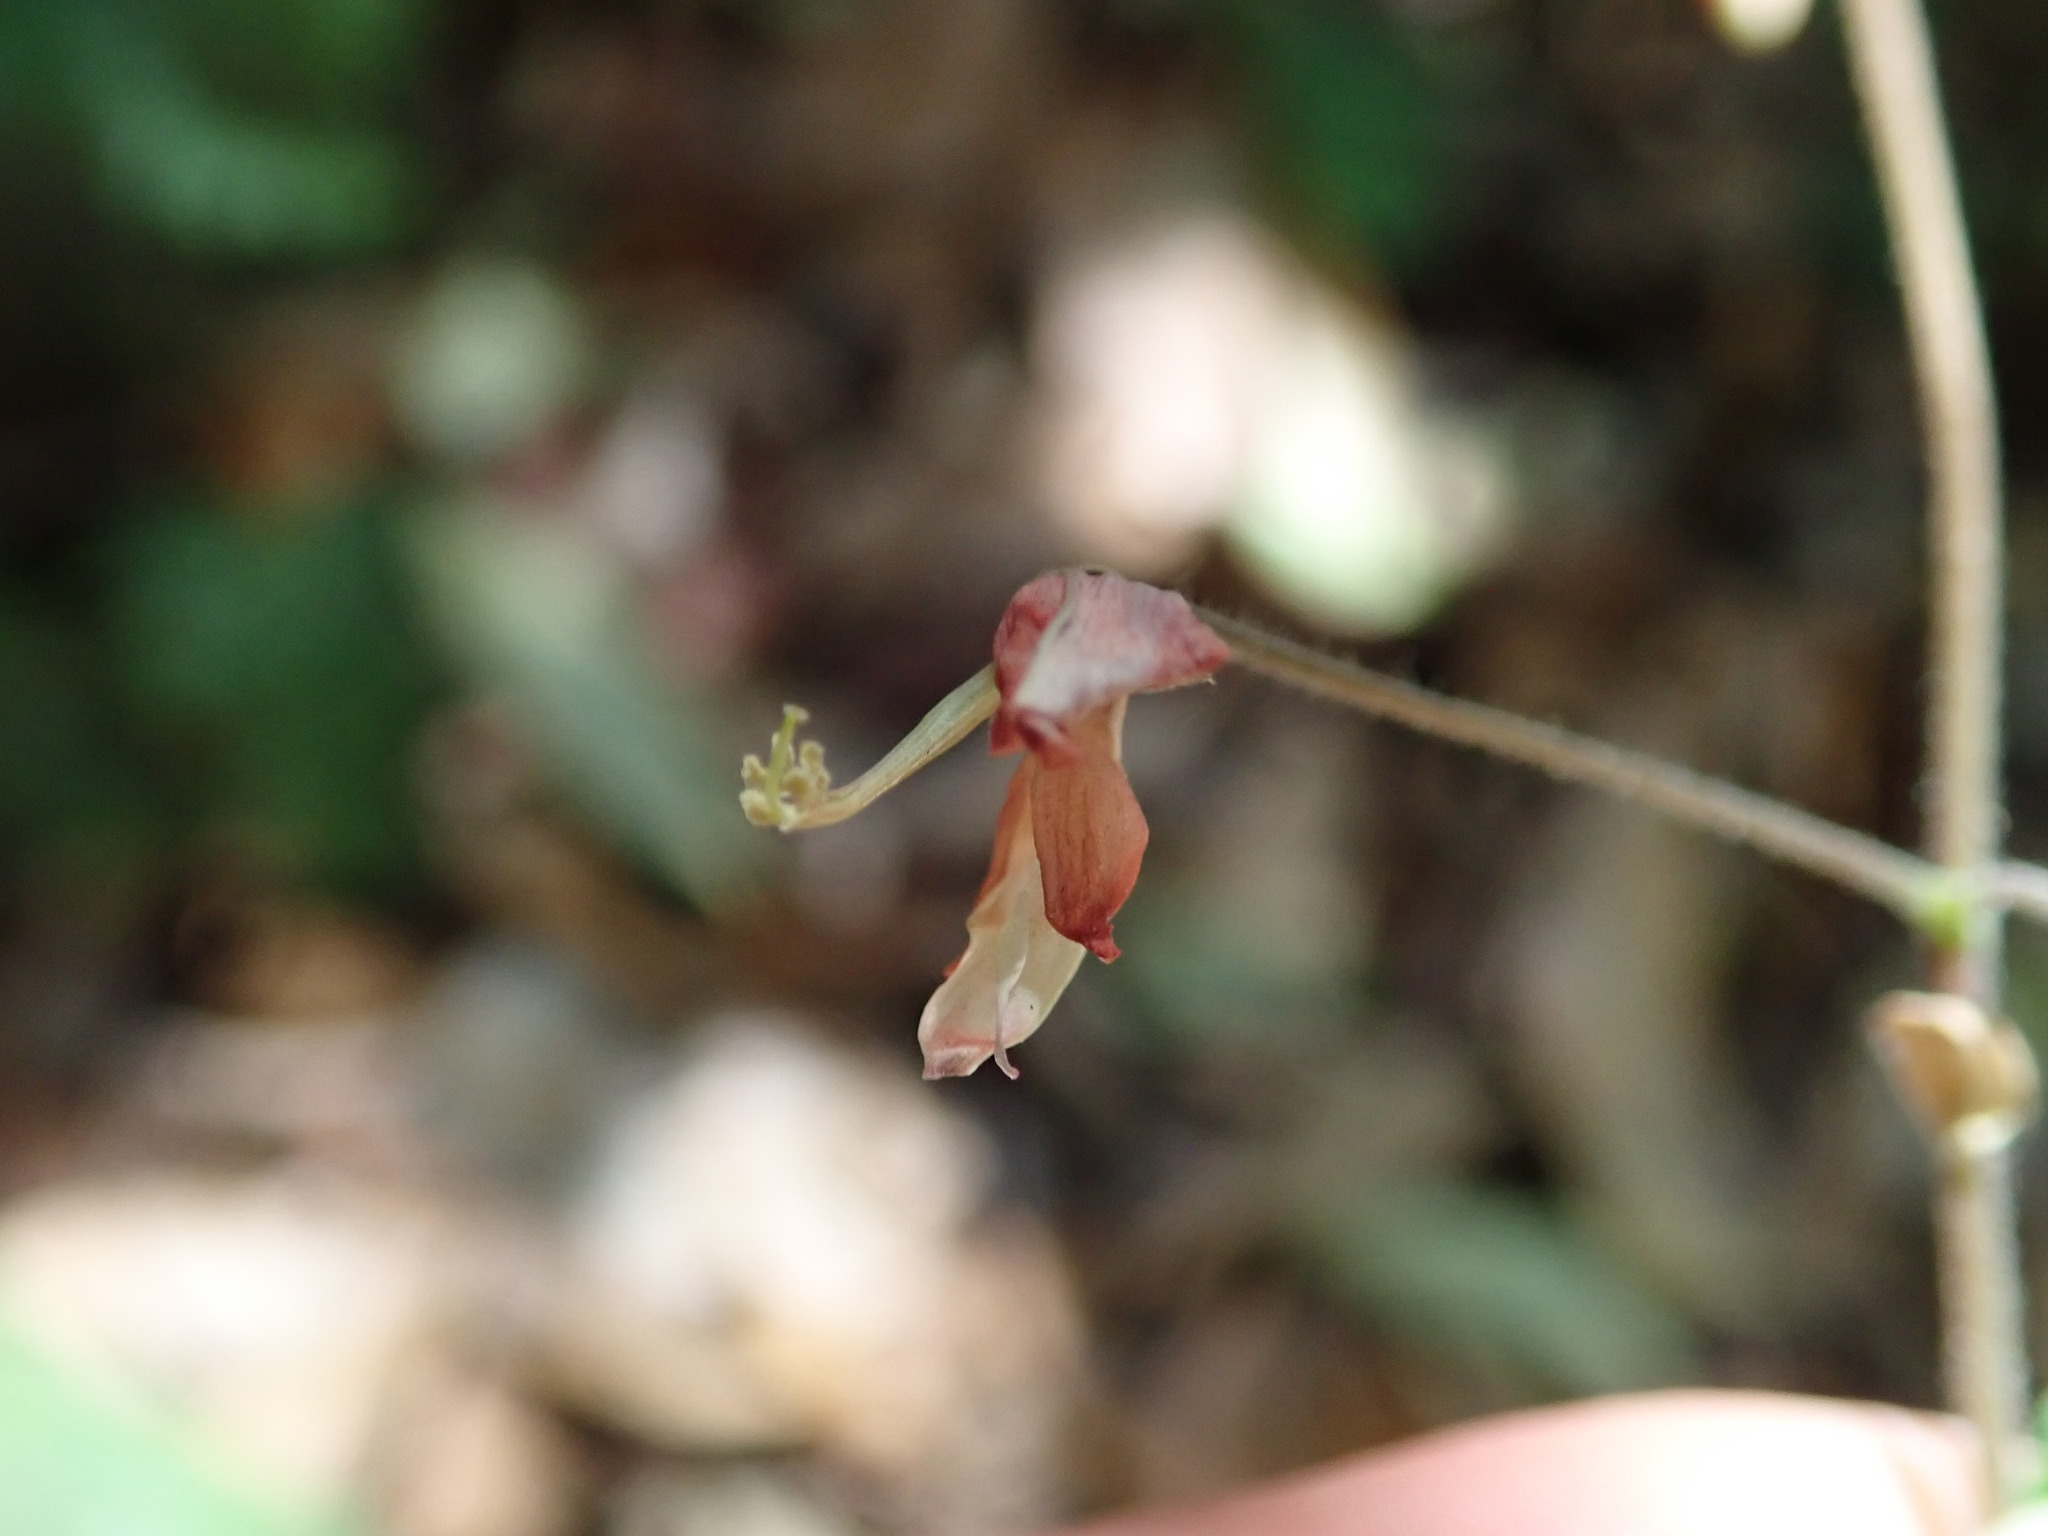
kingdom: Plantae
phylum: Tracheophyta
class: Magnoliopsida
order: Fabales
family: Fabaceae
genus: Hylodesmum
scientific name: Hylodesmum repandum
